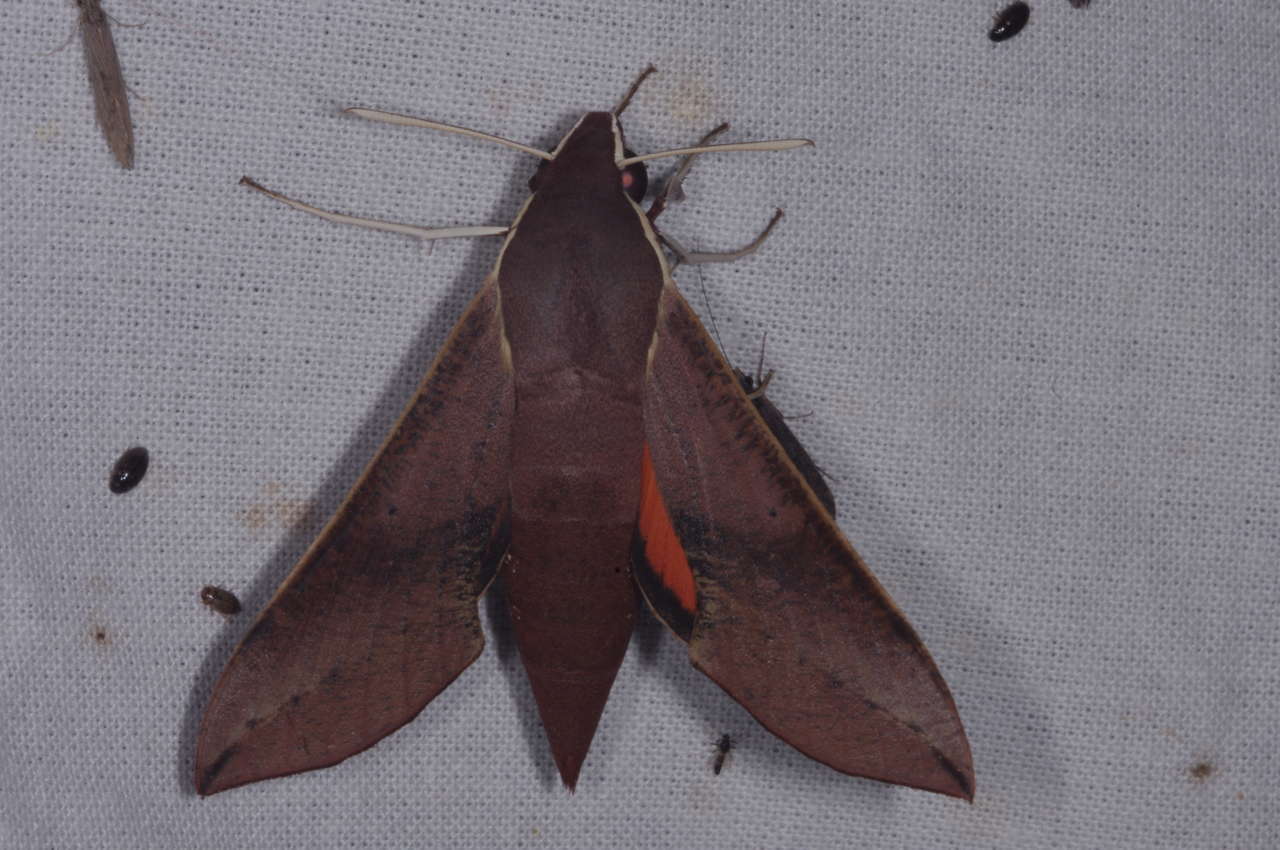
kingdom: Animalia
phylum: Arthropoda
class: Insecta
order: Lepidoptera
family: Sphingidae
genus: Hippotion
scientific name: Hippotion scrofa
